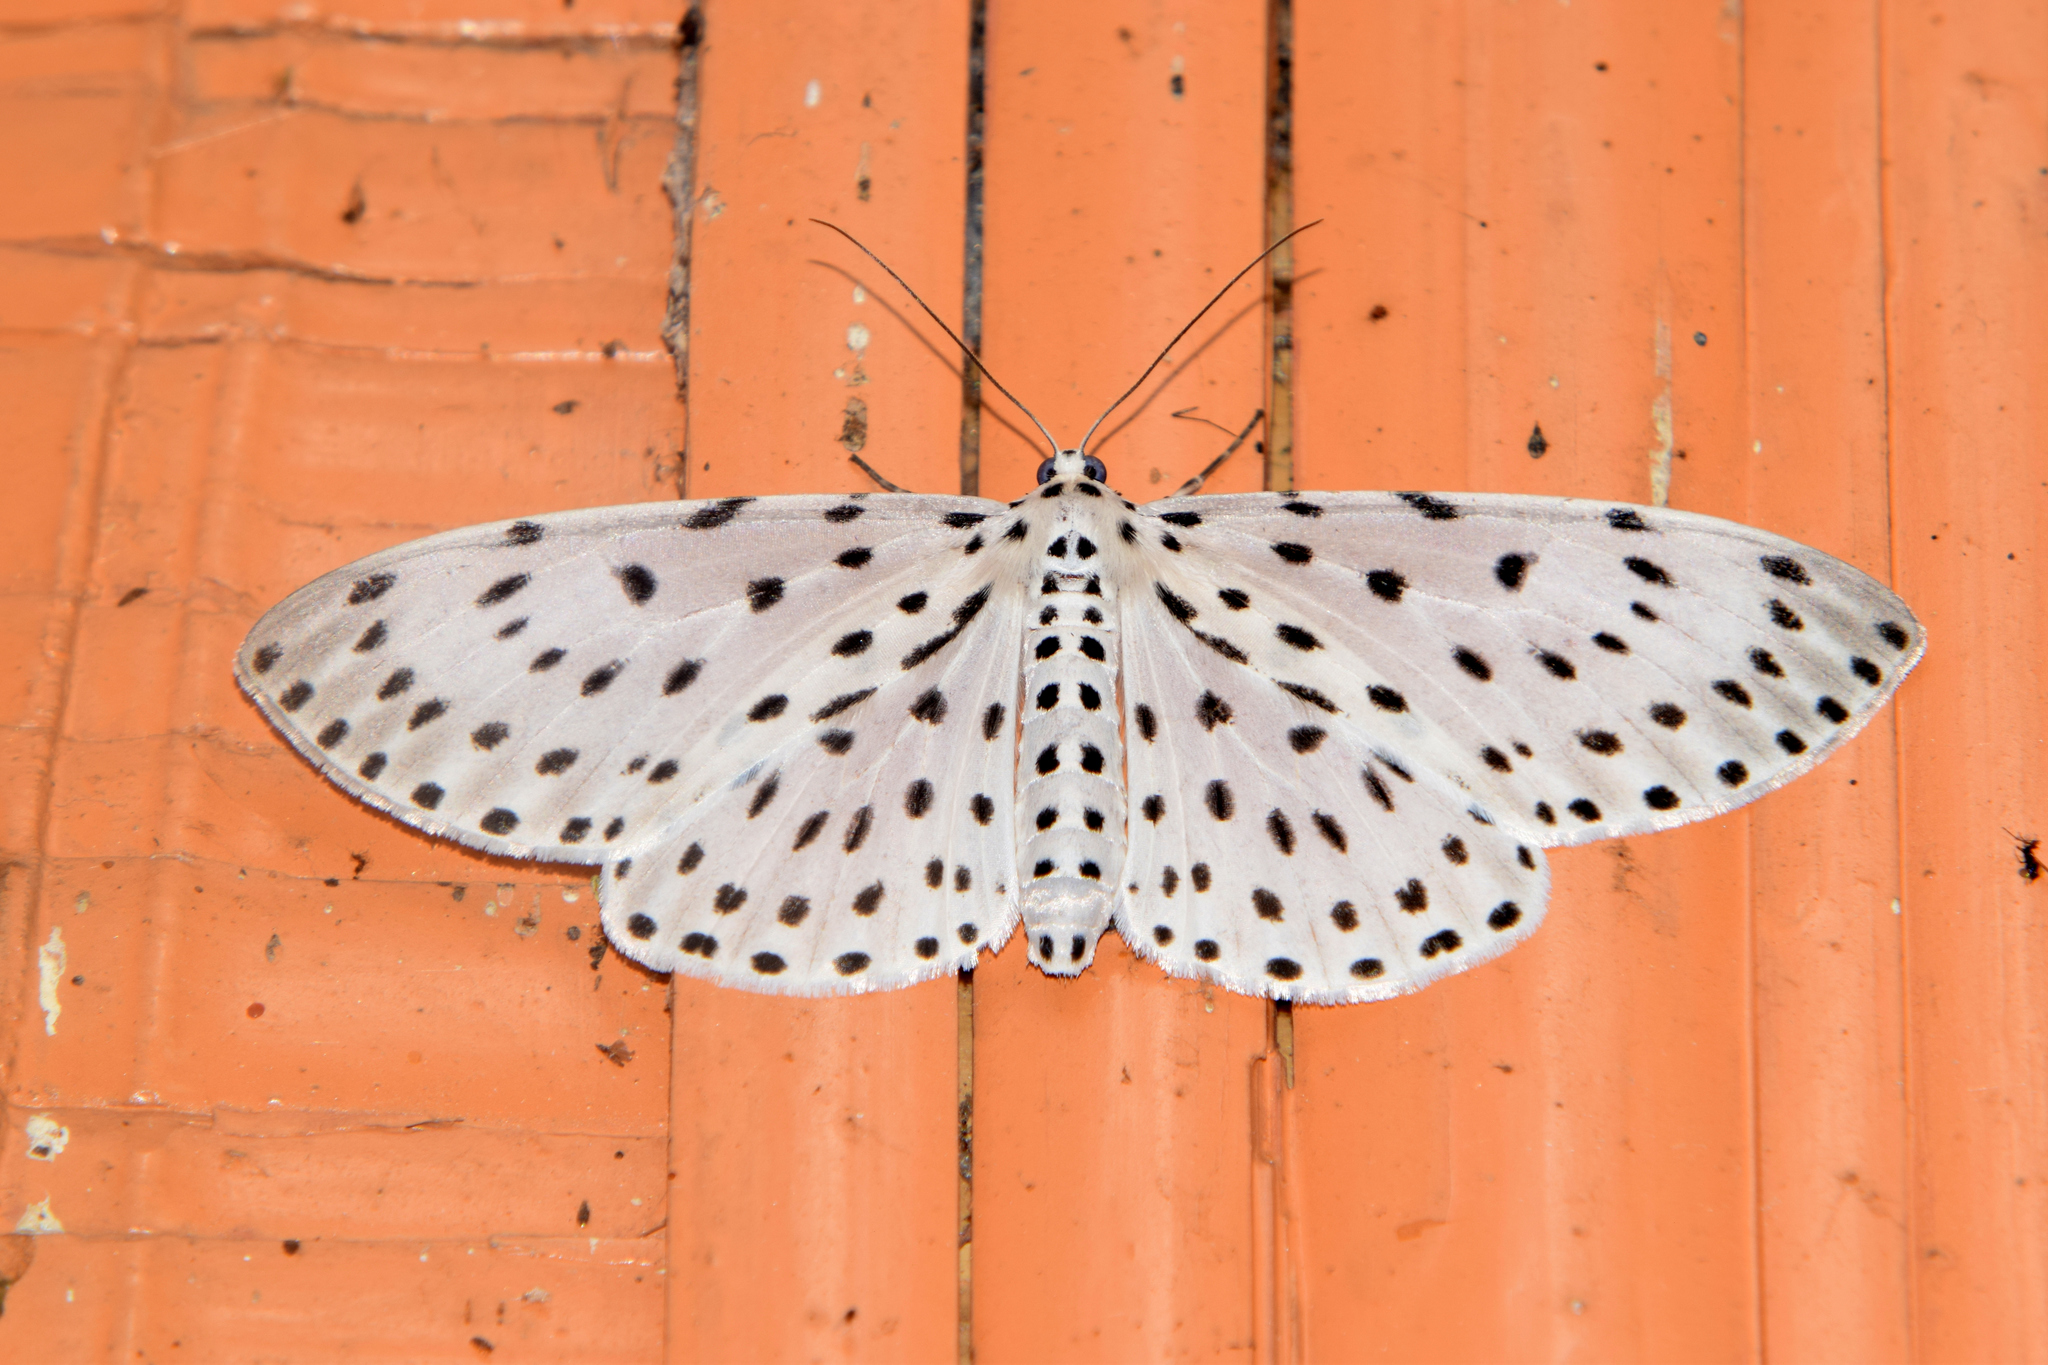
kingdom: Animalia
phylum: Arthropoda
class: Insecta
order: Lepidoptera
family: Geometridae
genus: Antipercnia
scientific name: Antipercnia belluaria
